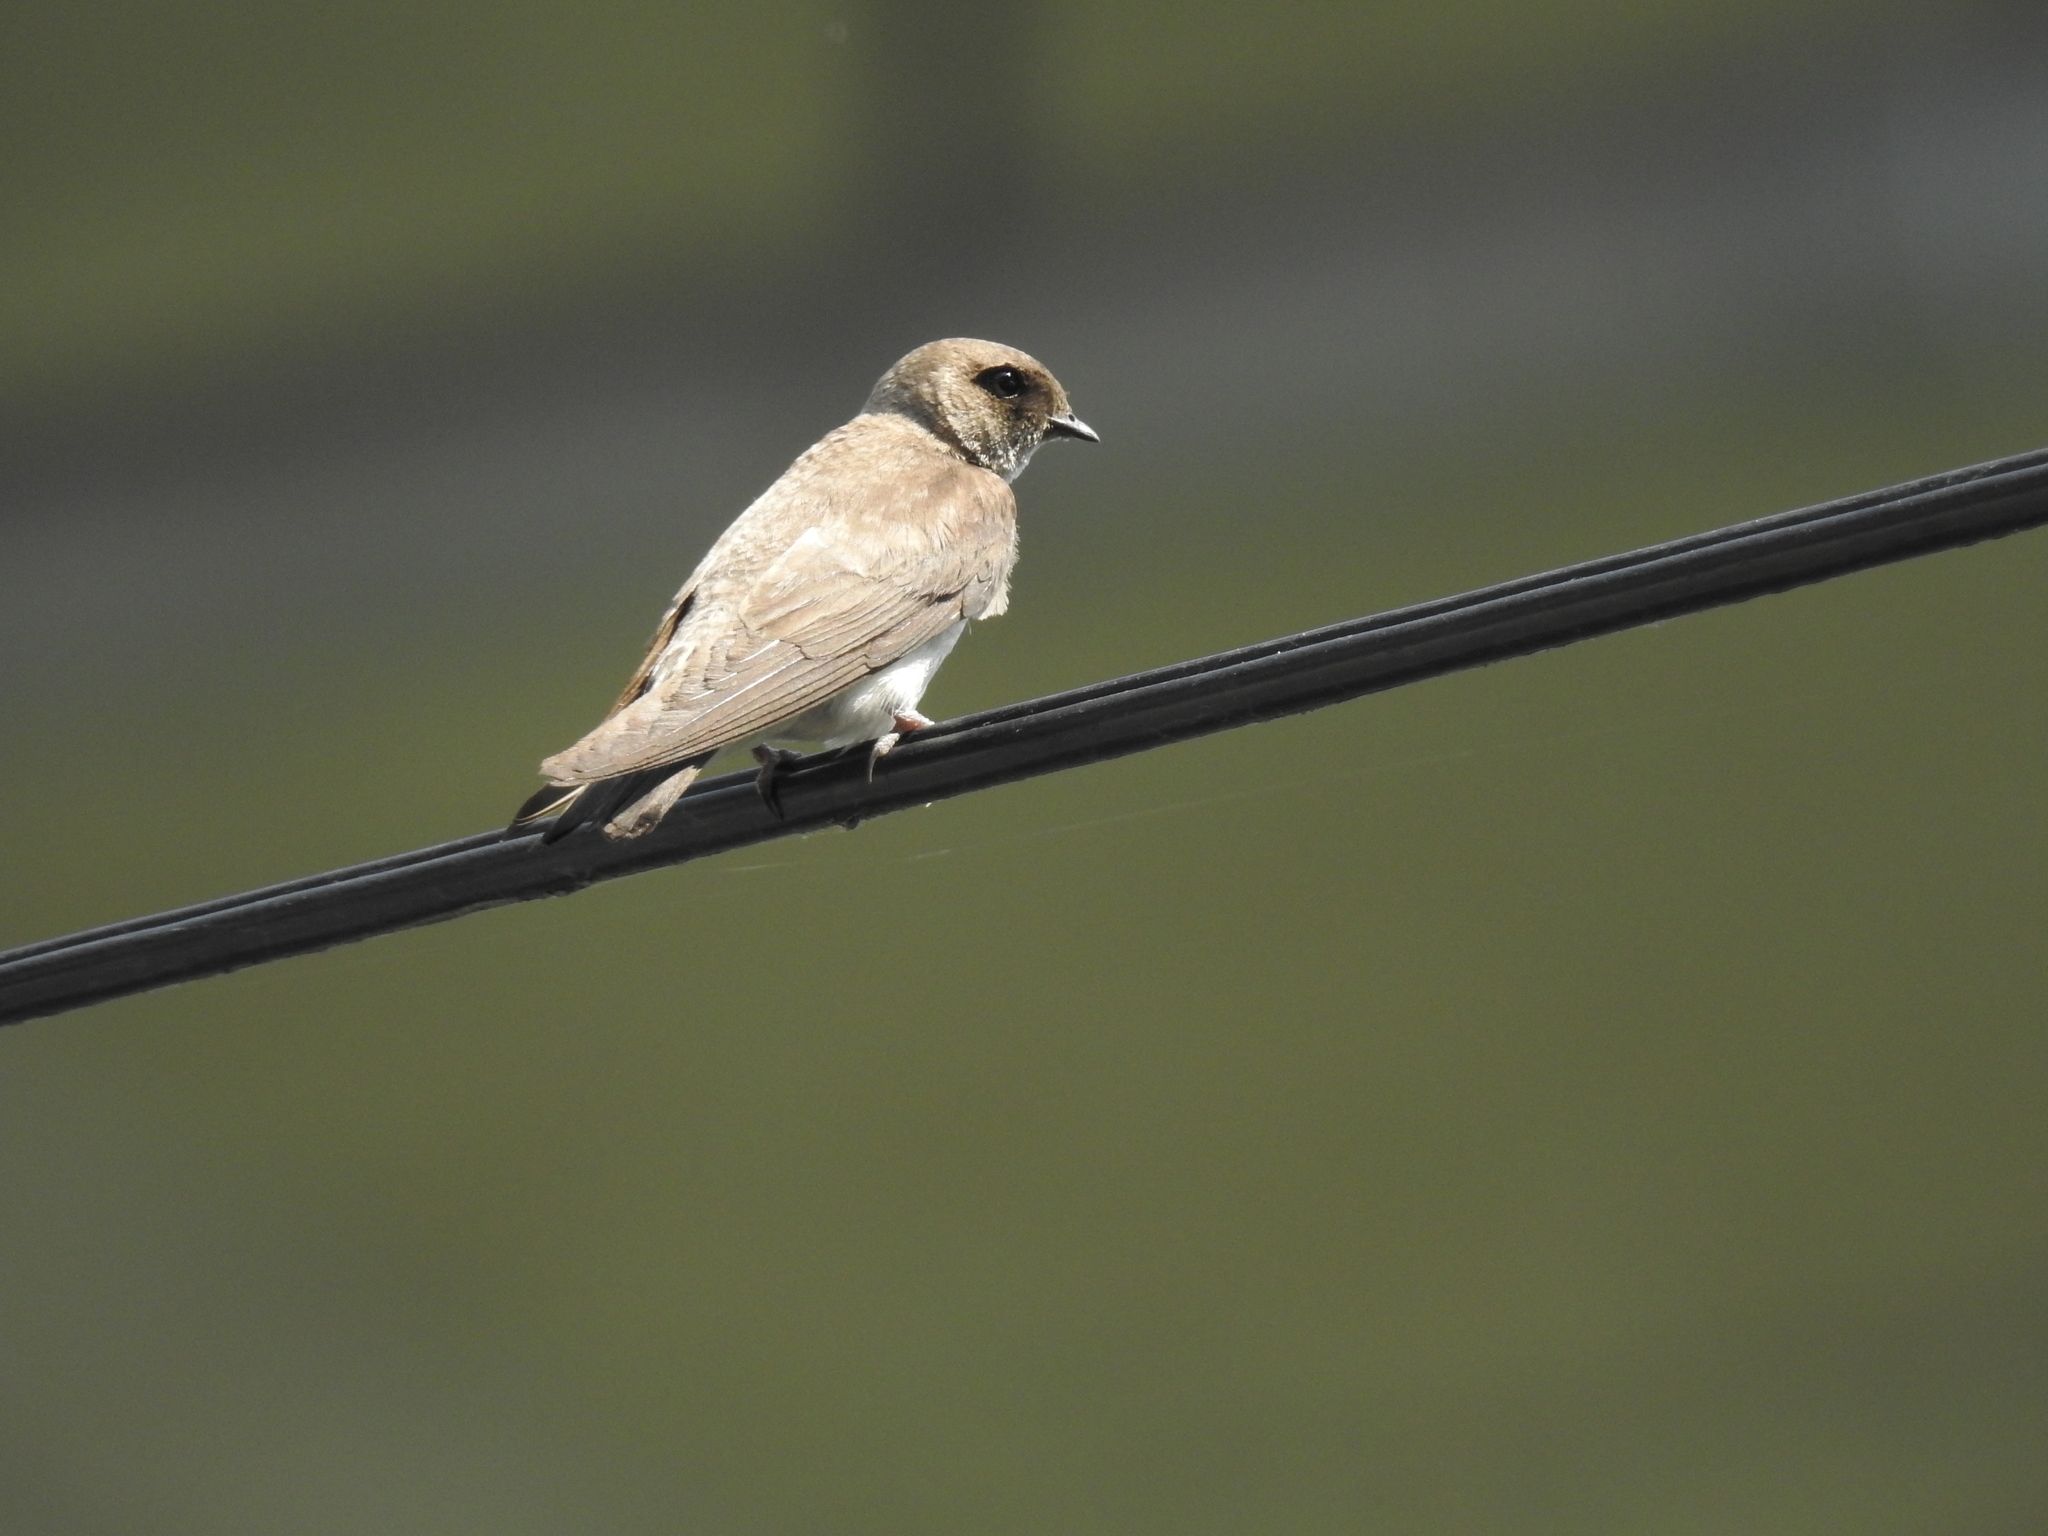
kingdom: Animalia
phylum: Chordata
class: Aves
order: Passeriformes
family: Hirundinidae
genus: Riparia
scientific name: Riparia chinensis
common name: Gray-throated martin
